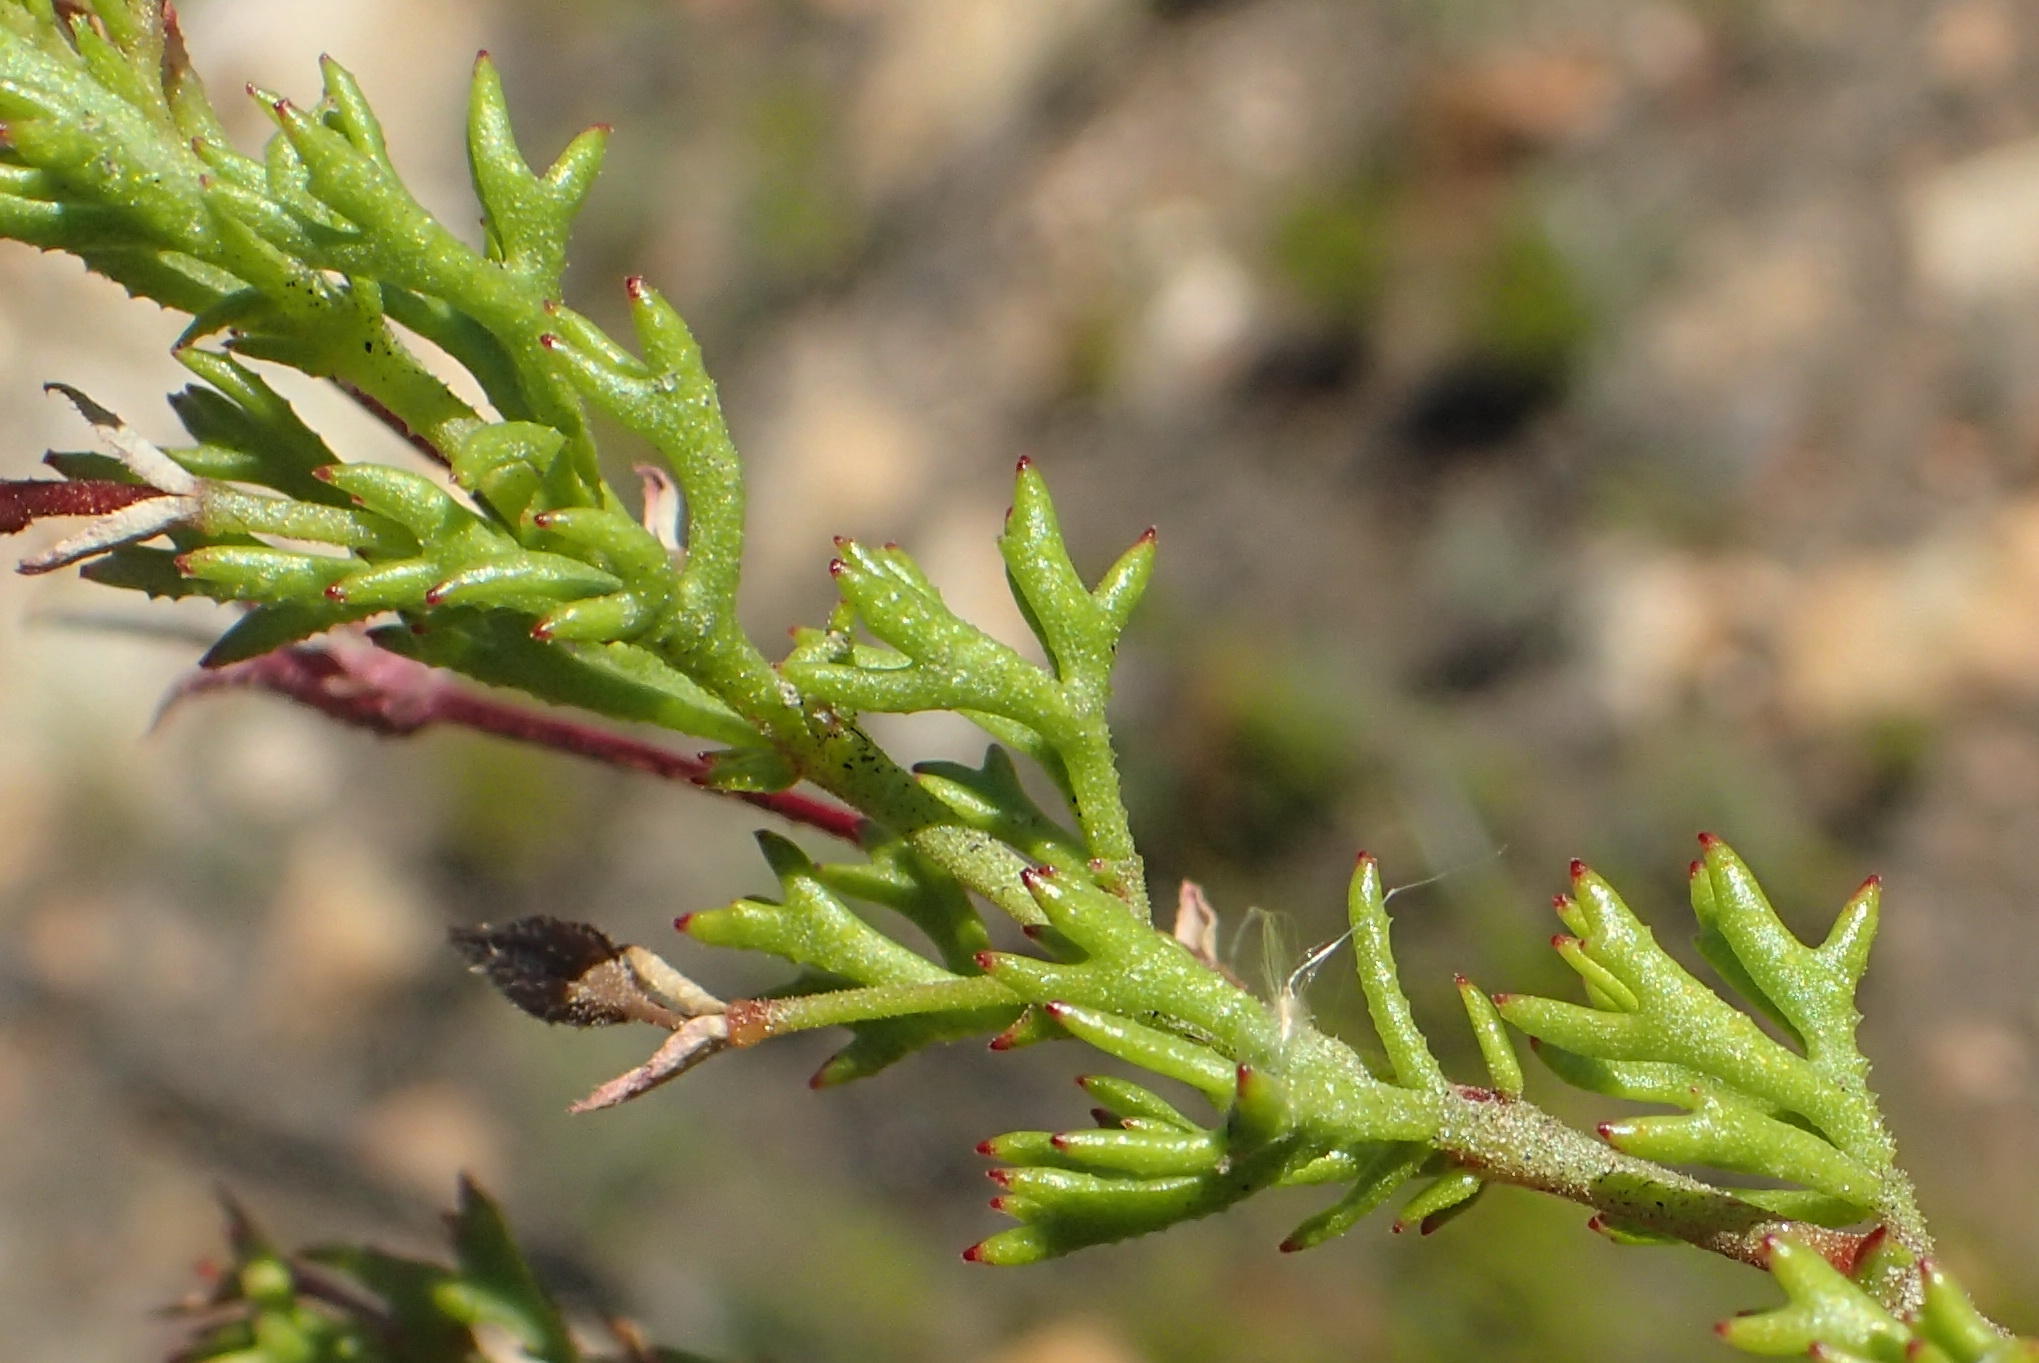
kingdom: Plantae
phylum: Tracheophyta
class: Magnoliopsida
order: Geraniales
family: Geraniaceae
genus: Pelargonium
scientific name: Pelargonium fruticosum
